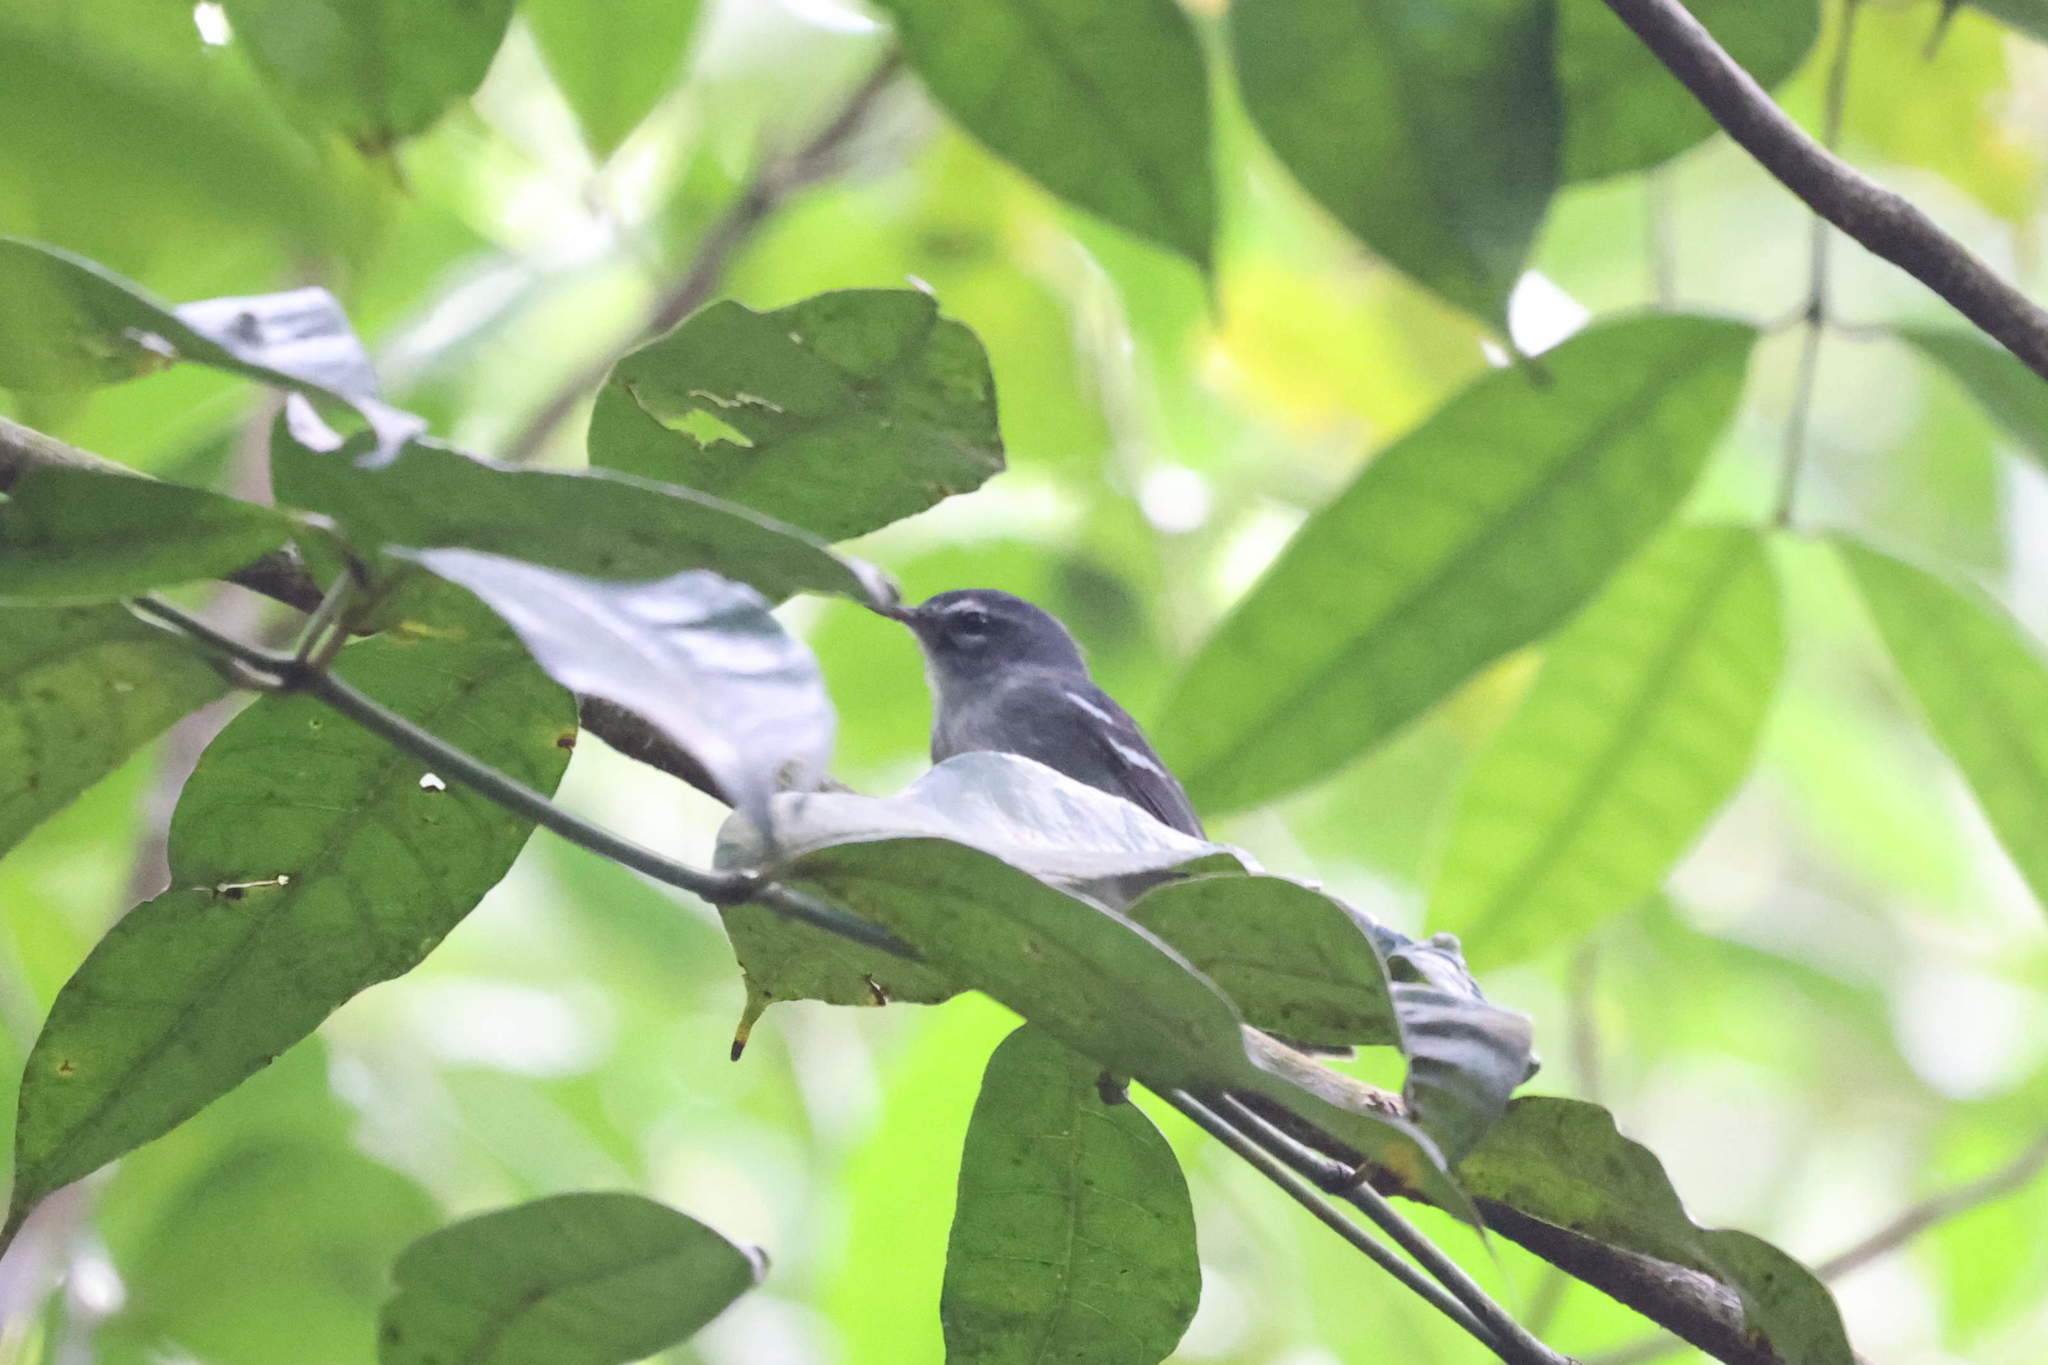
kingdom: Animalia
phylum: Chordata
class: Aves
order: Passeriformes
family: Parulidae
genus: Setophaga
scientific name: Setophaga plumbea
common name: Plumbeous warbler
